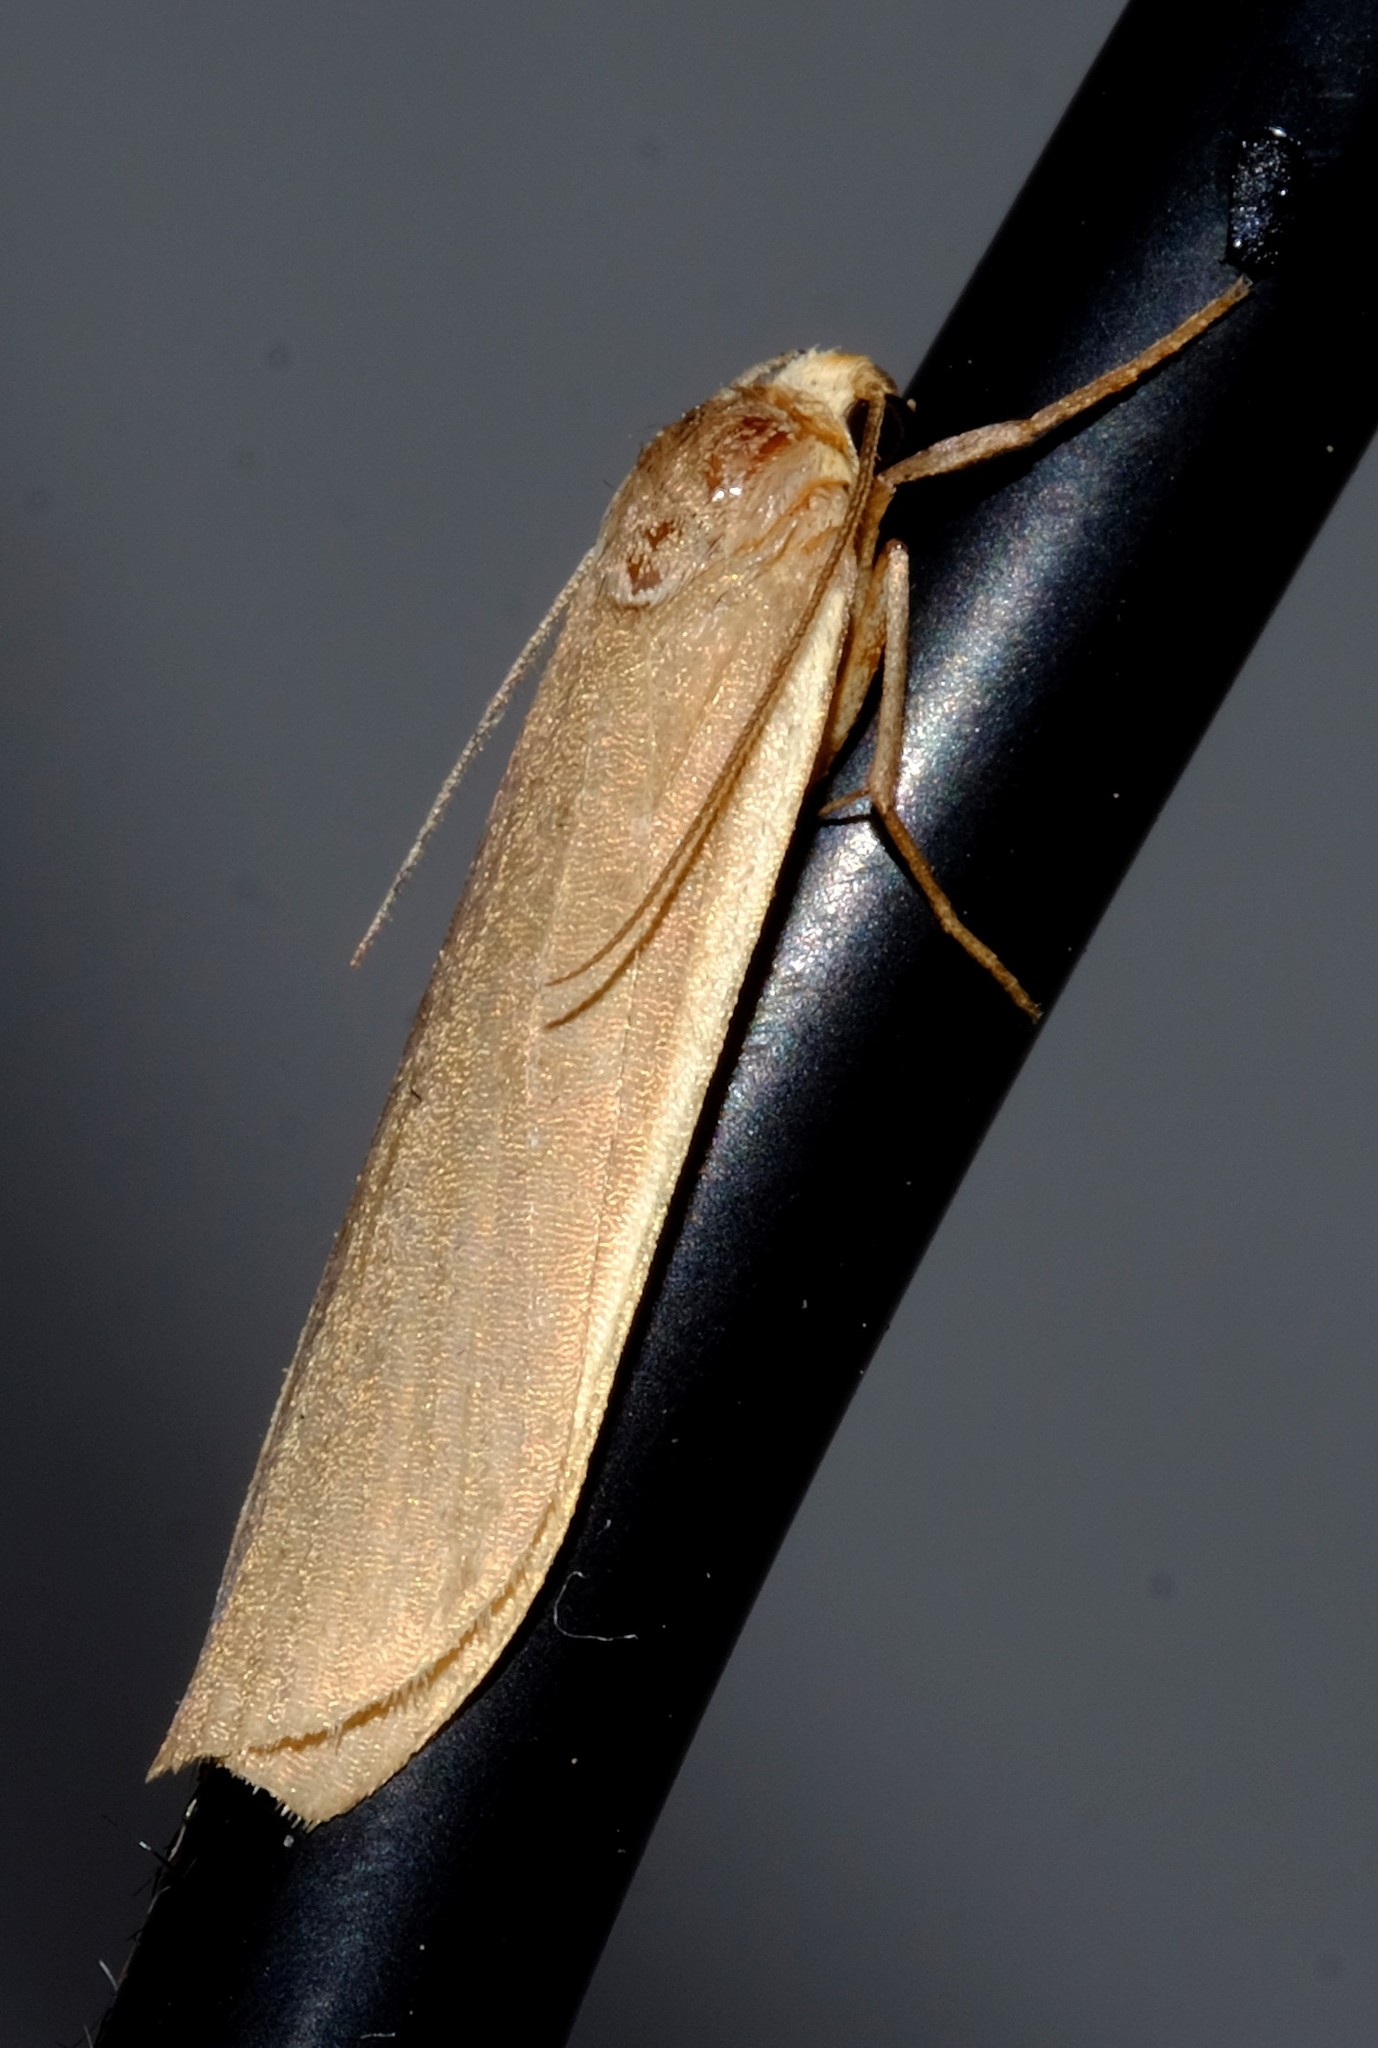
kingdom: Animalia
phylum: Arthropoda
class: Insecta
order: Lepidoptera
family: Erebidae
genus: Scoliacma
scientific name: Scoliacma nana
